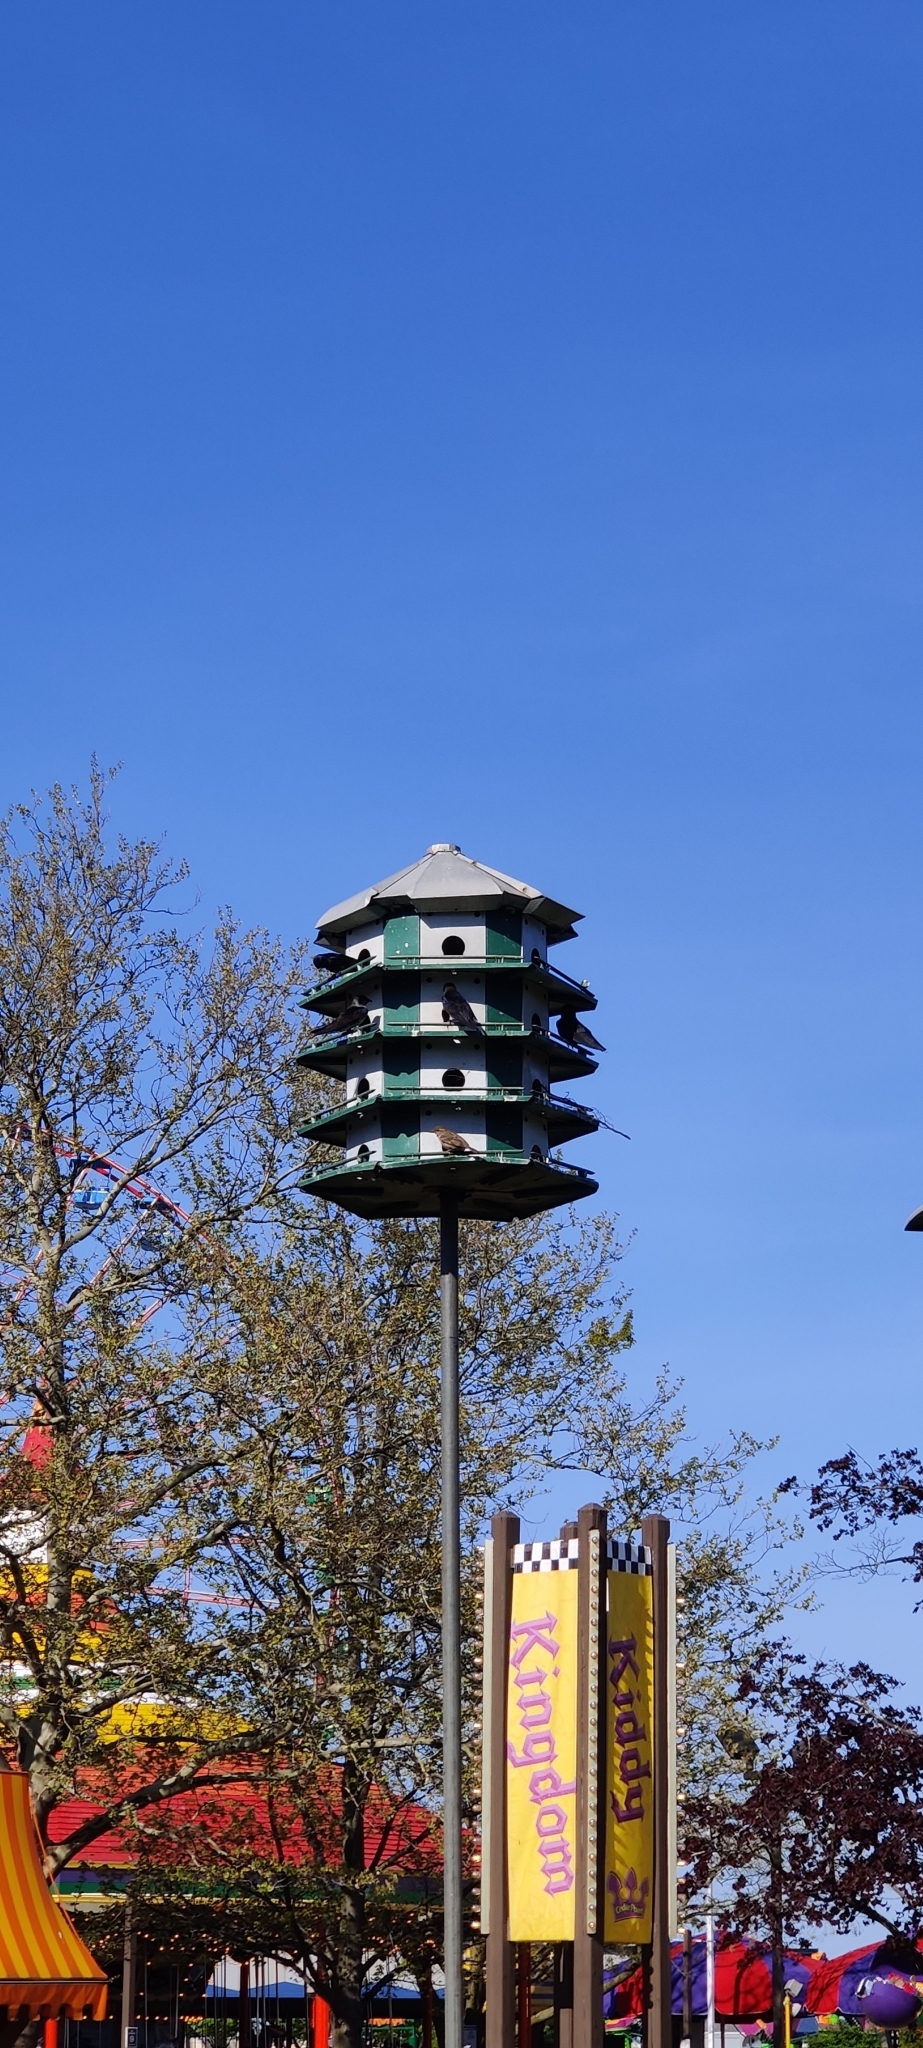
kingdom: Animalia
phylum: Chordata
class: Aves
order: Passeriformes
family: Hirundinidae
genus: Progne
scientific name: Progne subis
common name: Purple martin
